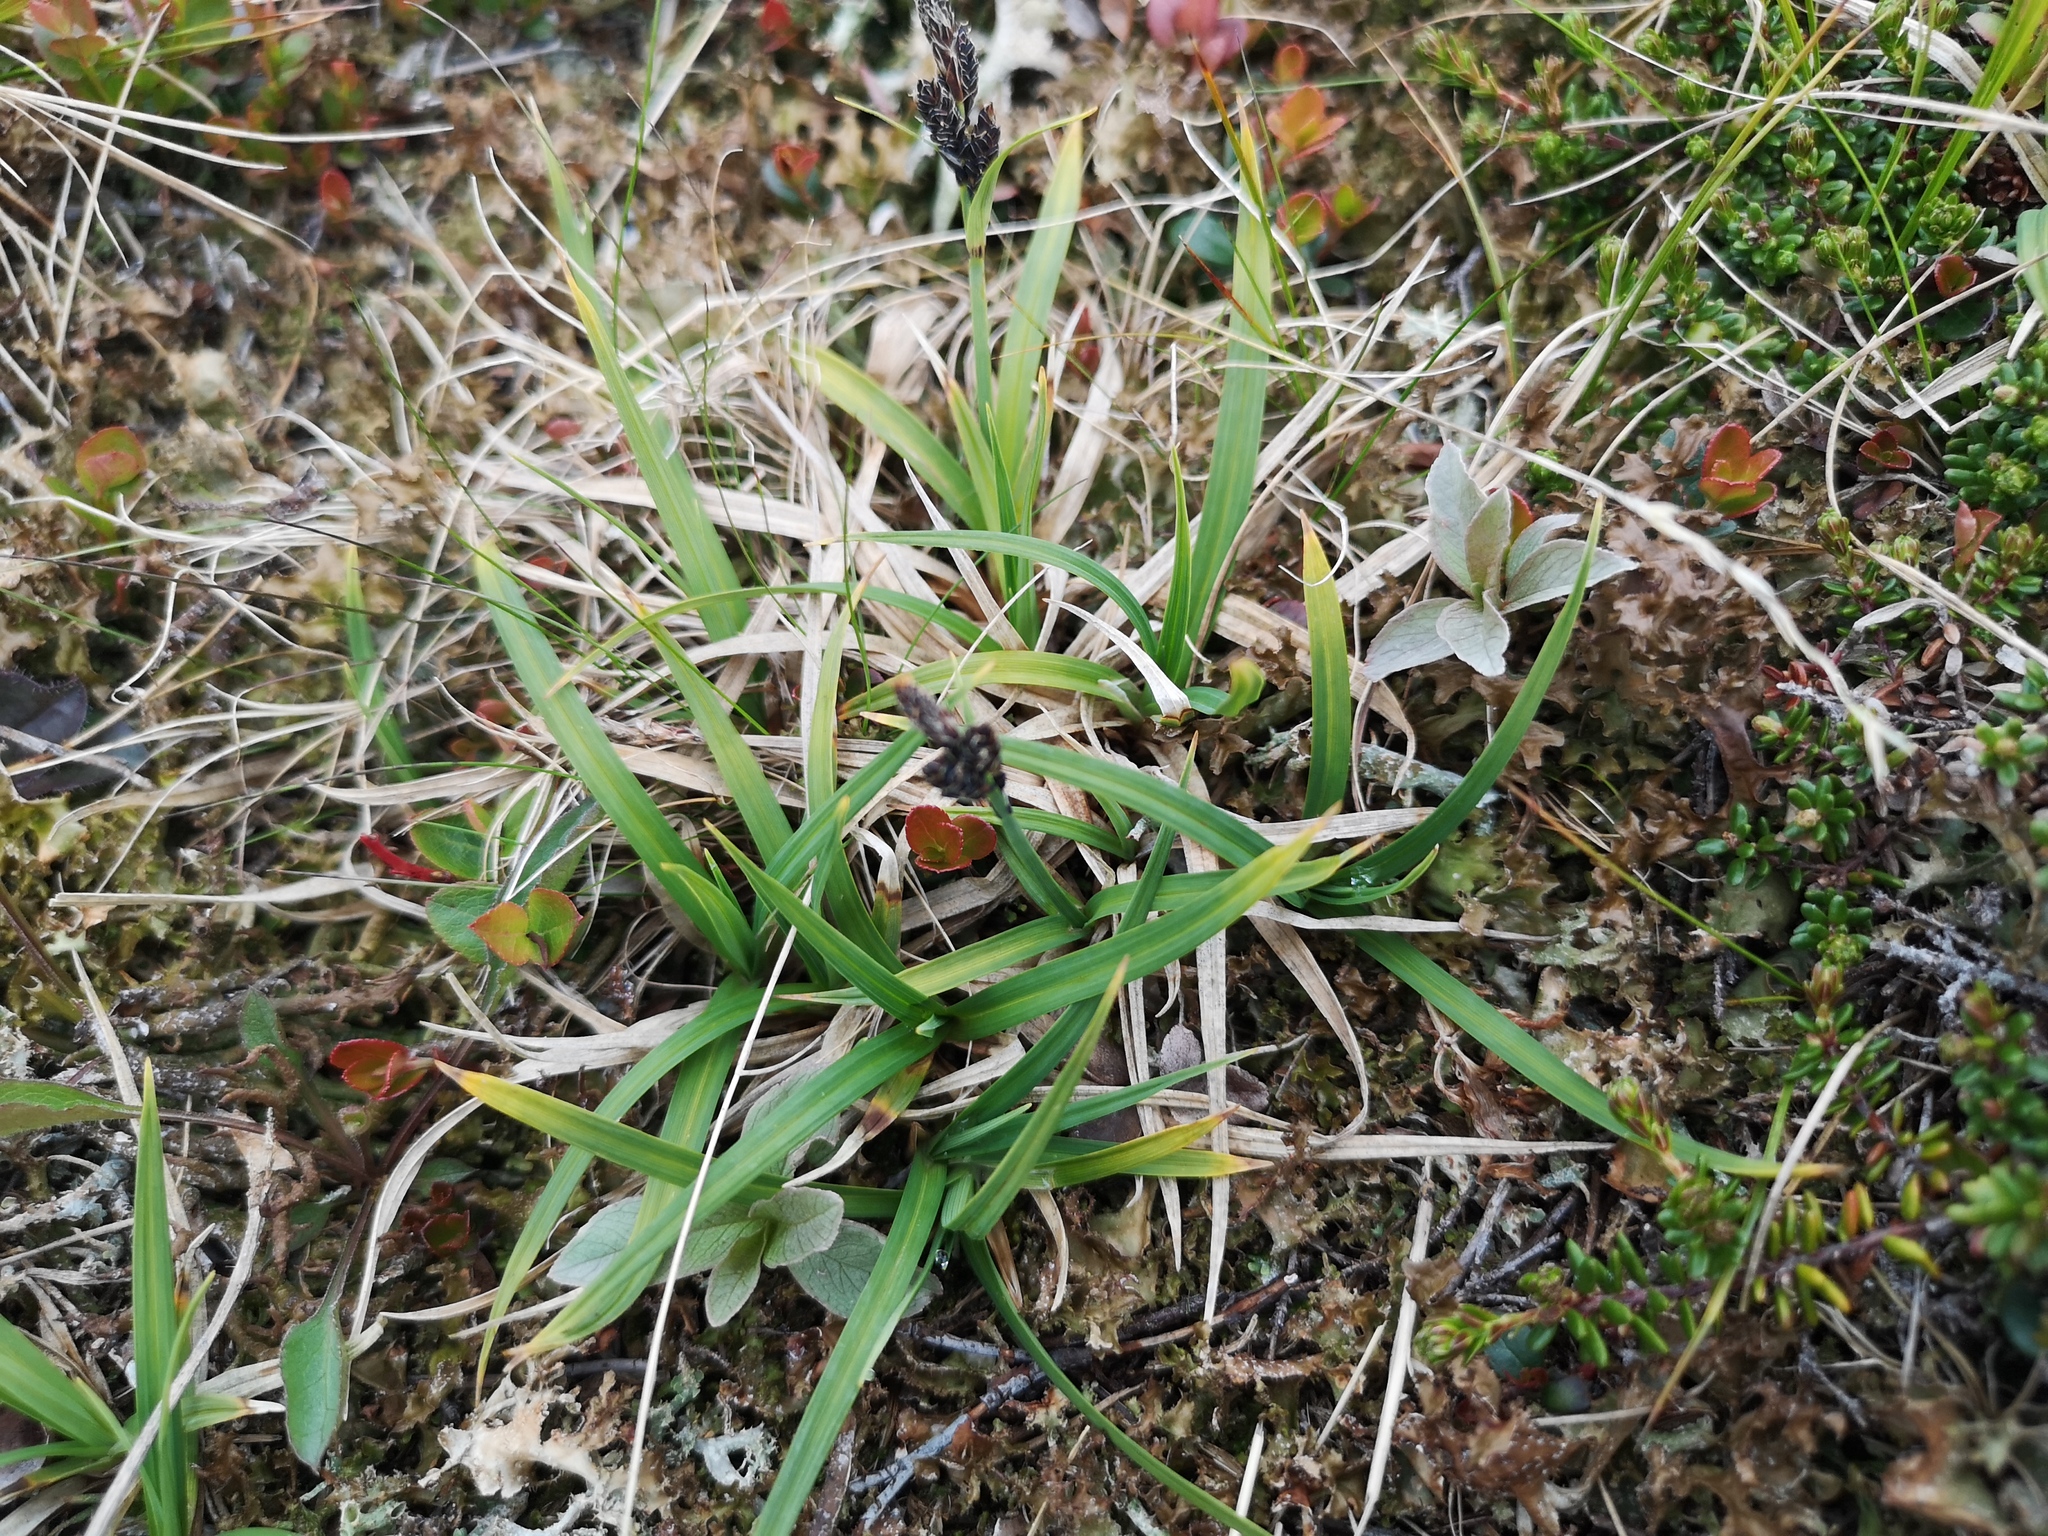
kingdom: Plantae
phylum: Tracheophyta
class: Liliopsida
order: Poales
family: Cyperaceae
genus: Carex
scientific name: Carex bigelowii
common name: Stiff sedge
